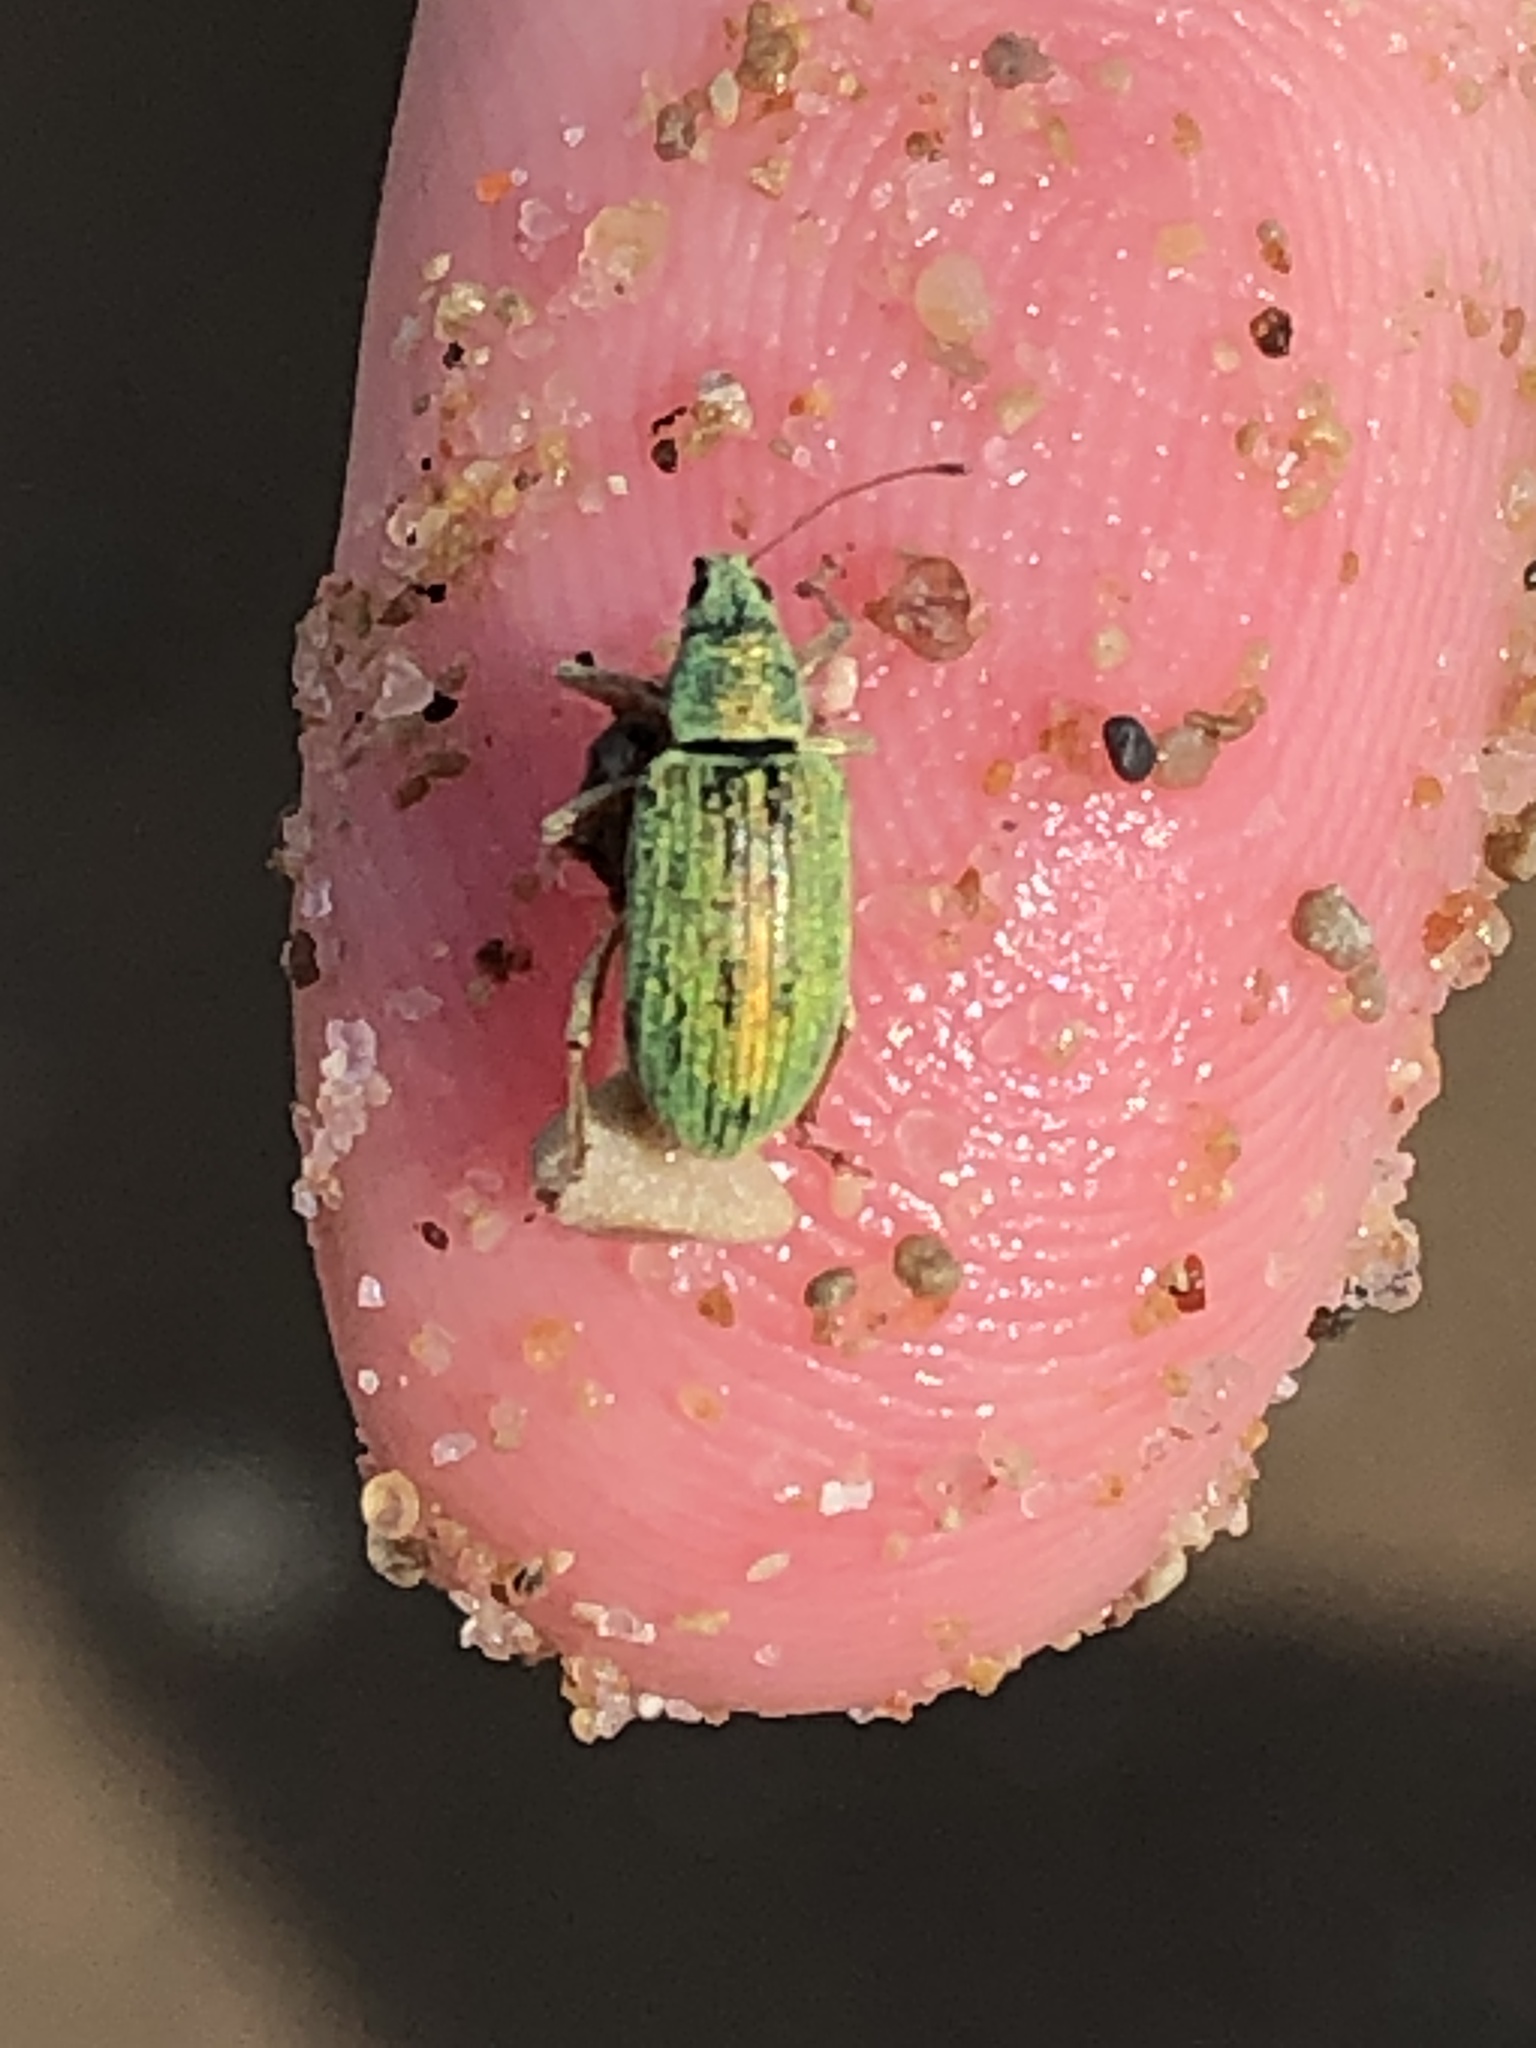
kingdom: Animalia
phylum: Arthropoda
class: Insecta
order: Coleoptera
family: Curculionidae
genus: Polydrusus
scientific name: Polydrusus formosus
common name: Weevil
